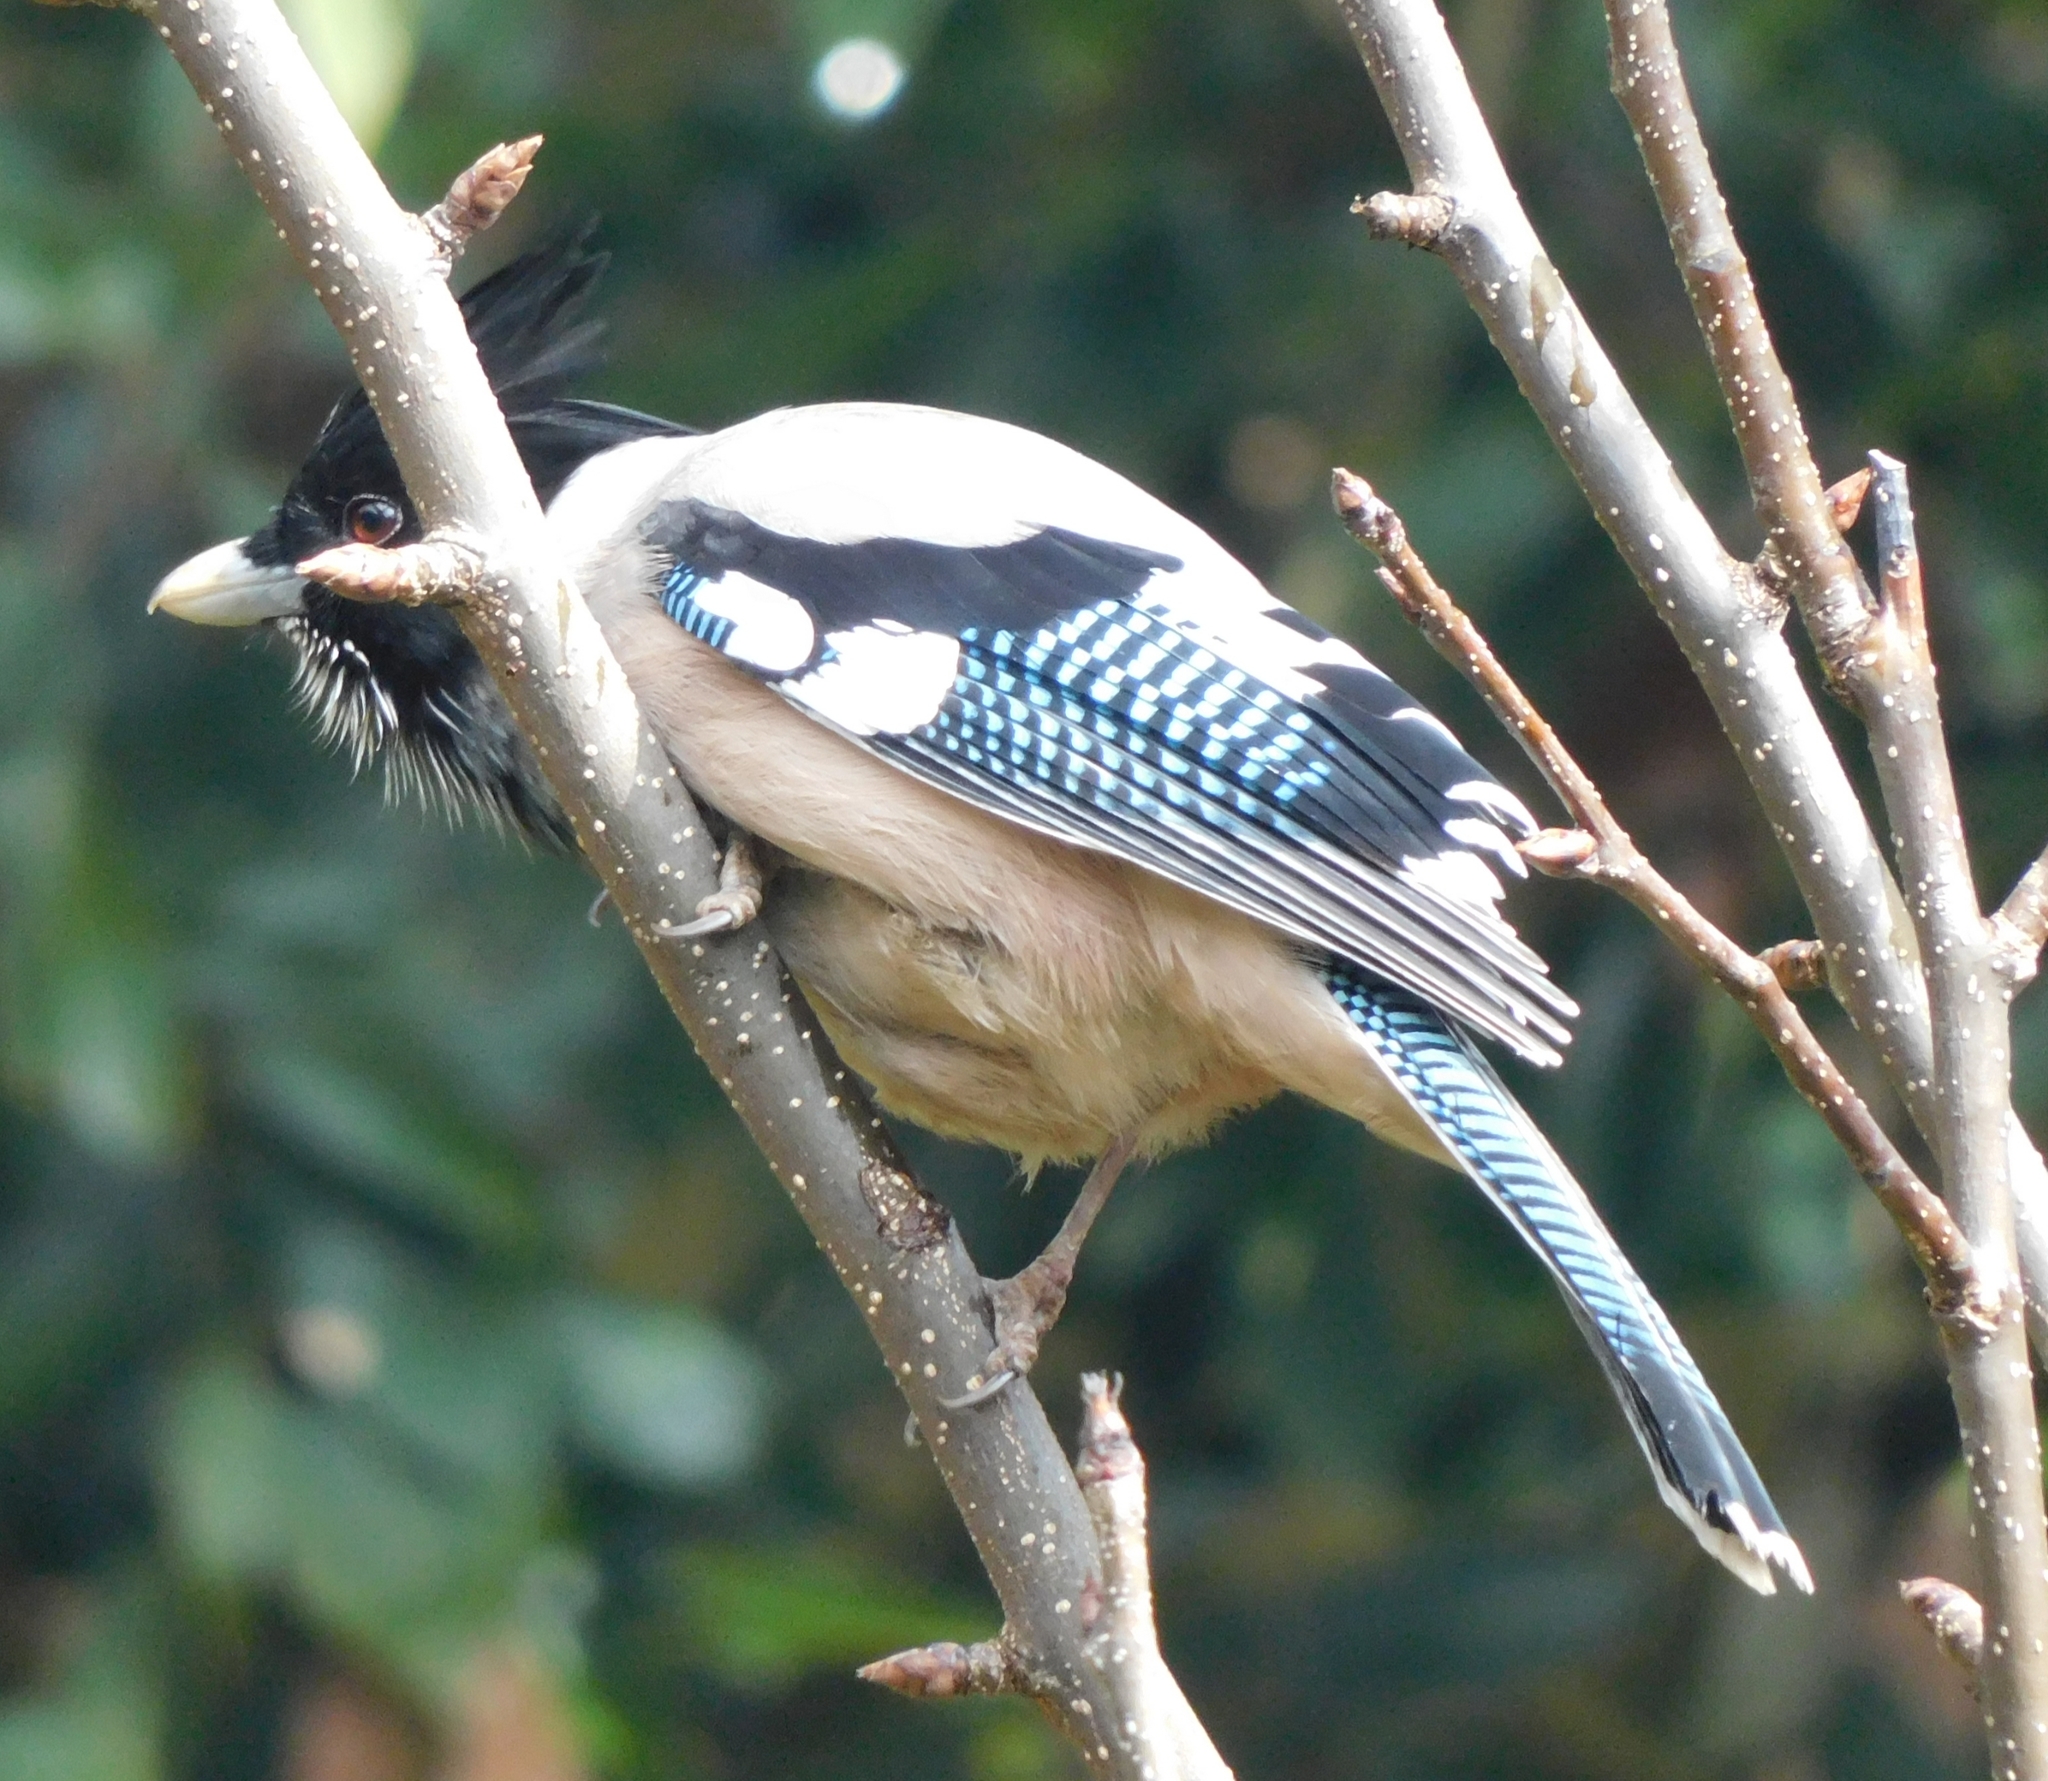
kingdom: Animalia
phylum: Chordata
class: Aves
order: Passeriformes
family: Corvidae
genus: Garrulus
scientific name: Garrulus lanceolatus
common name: Black-headed jay
